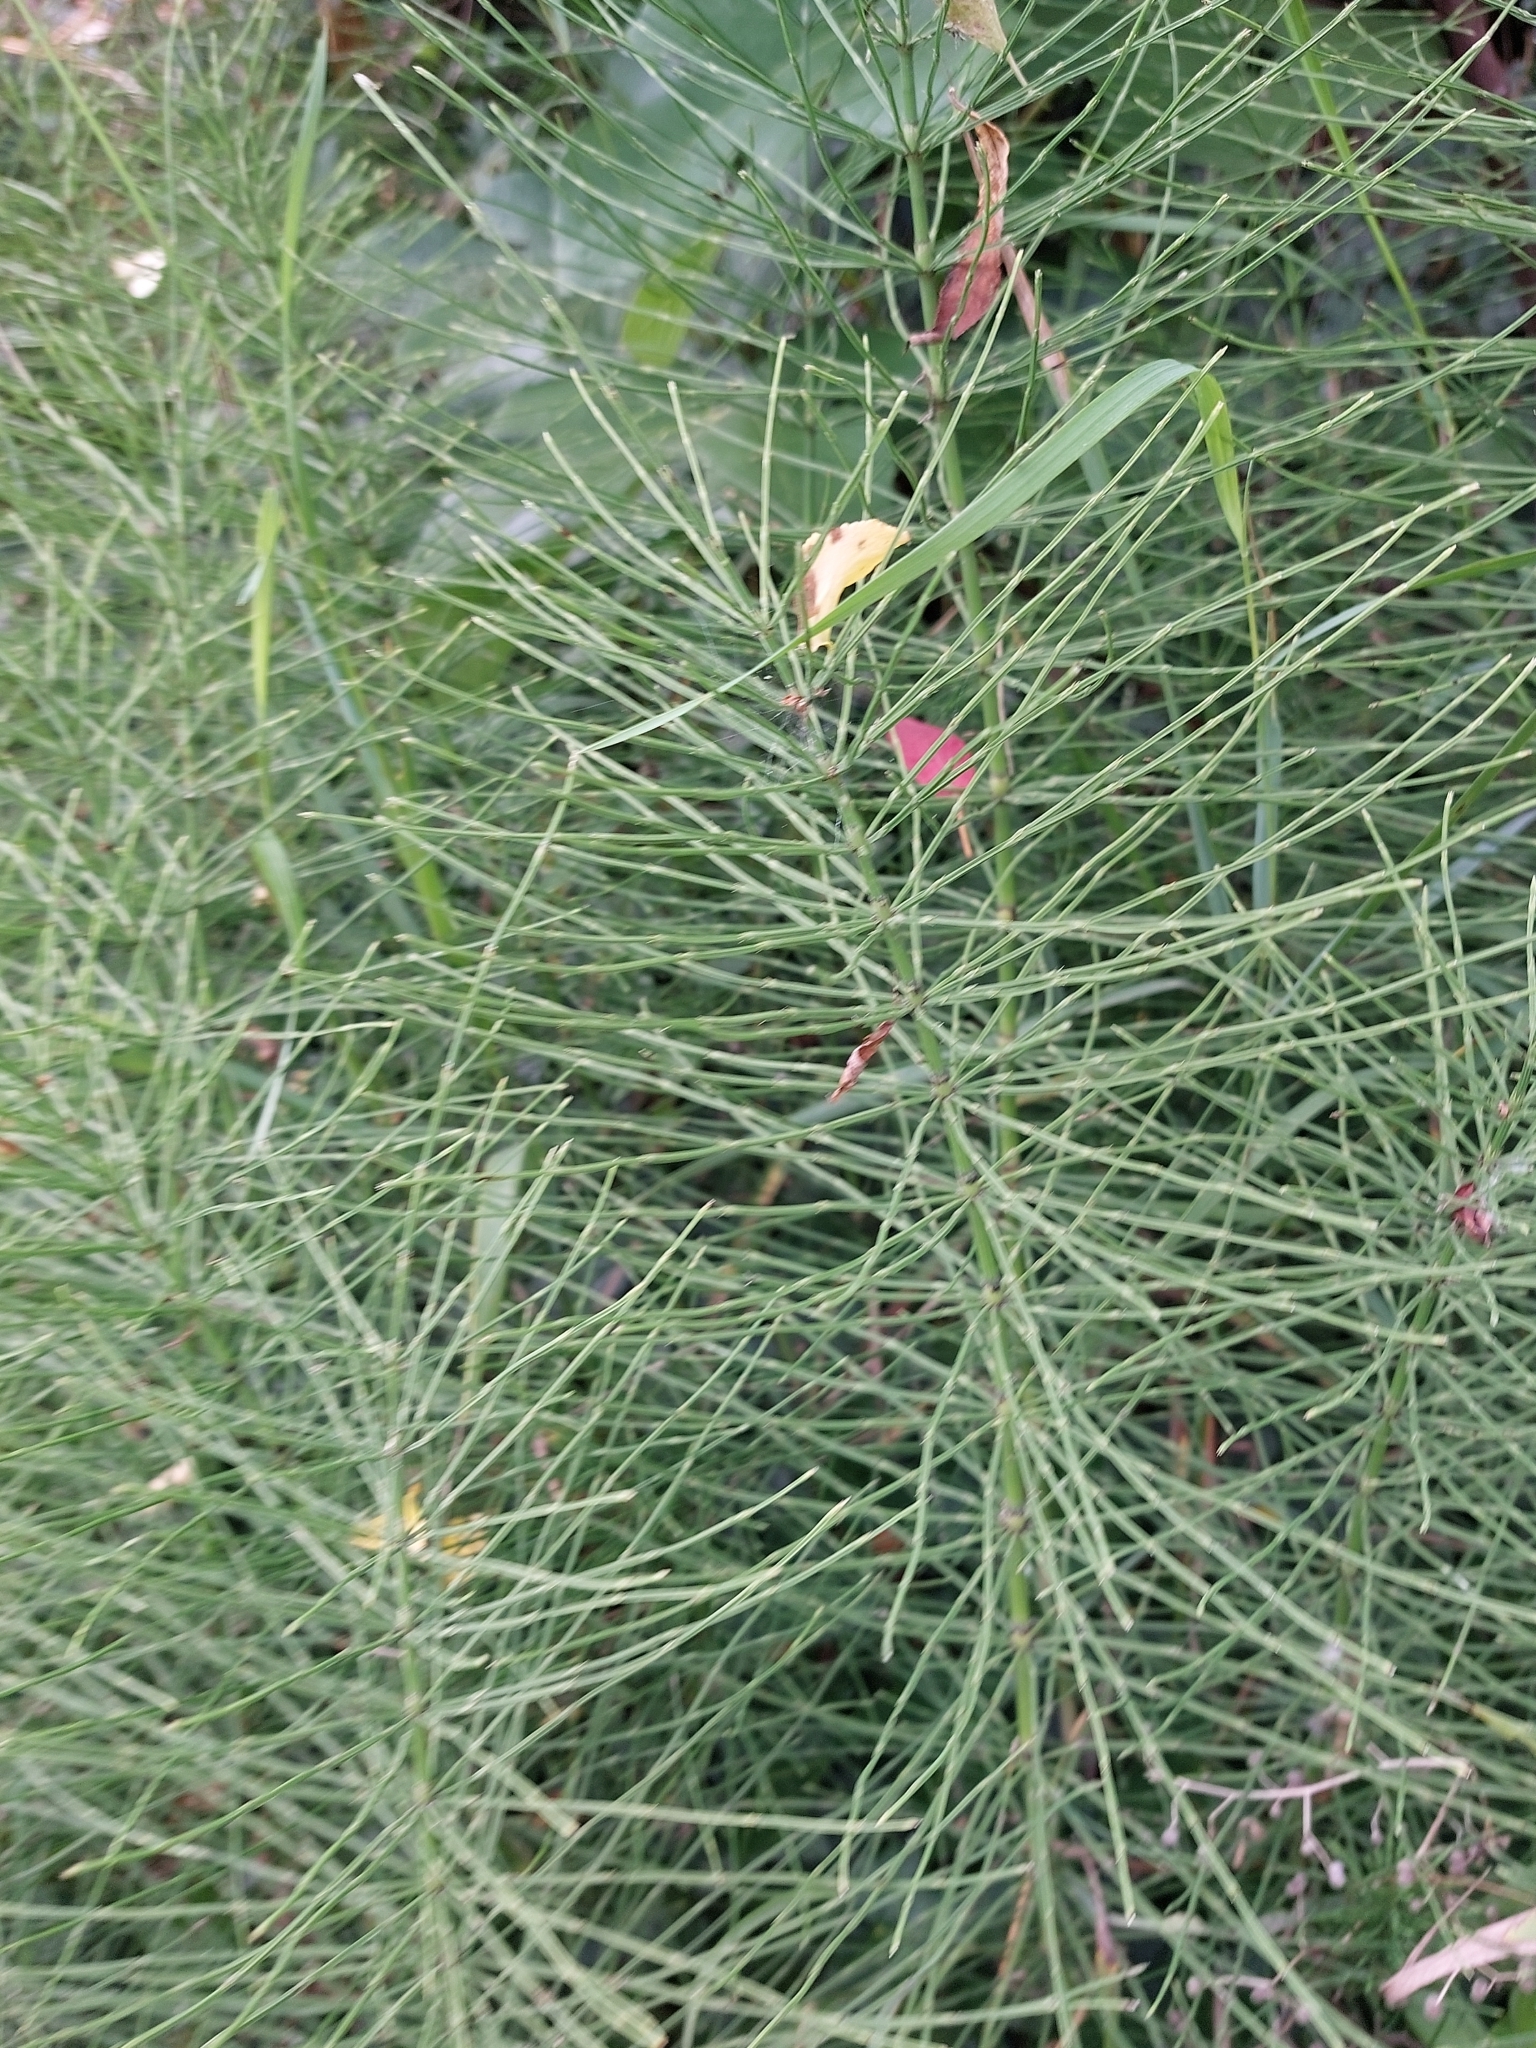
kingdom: Plantae
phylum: Tracheophyta
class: Polypodiopsida
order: Equisetales
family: Equisetaceae
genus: Equisetum
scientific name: Equisetum arvense
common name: Field horsetail
